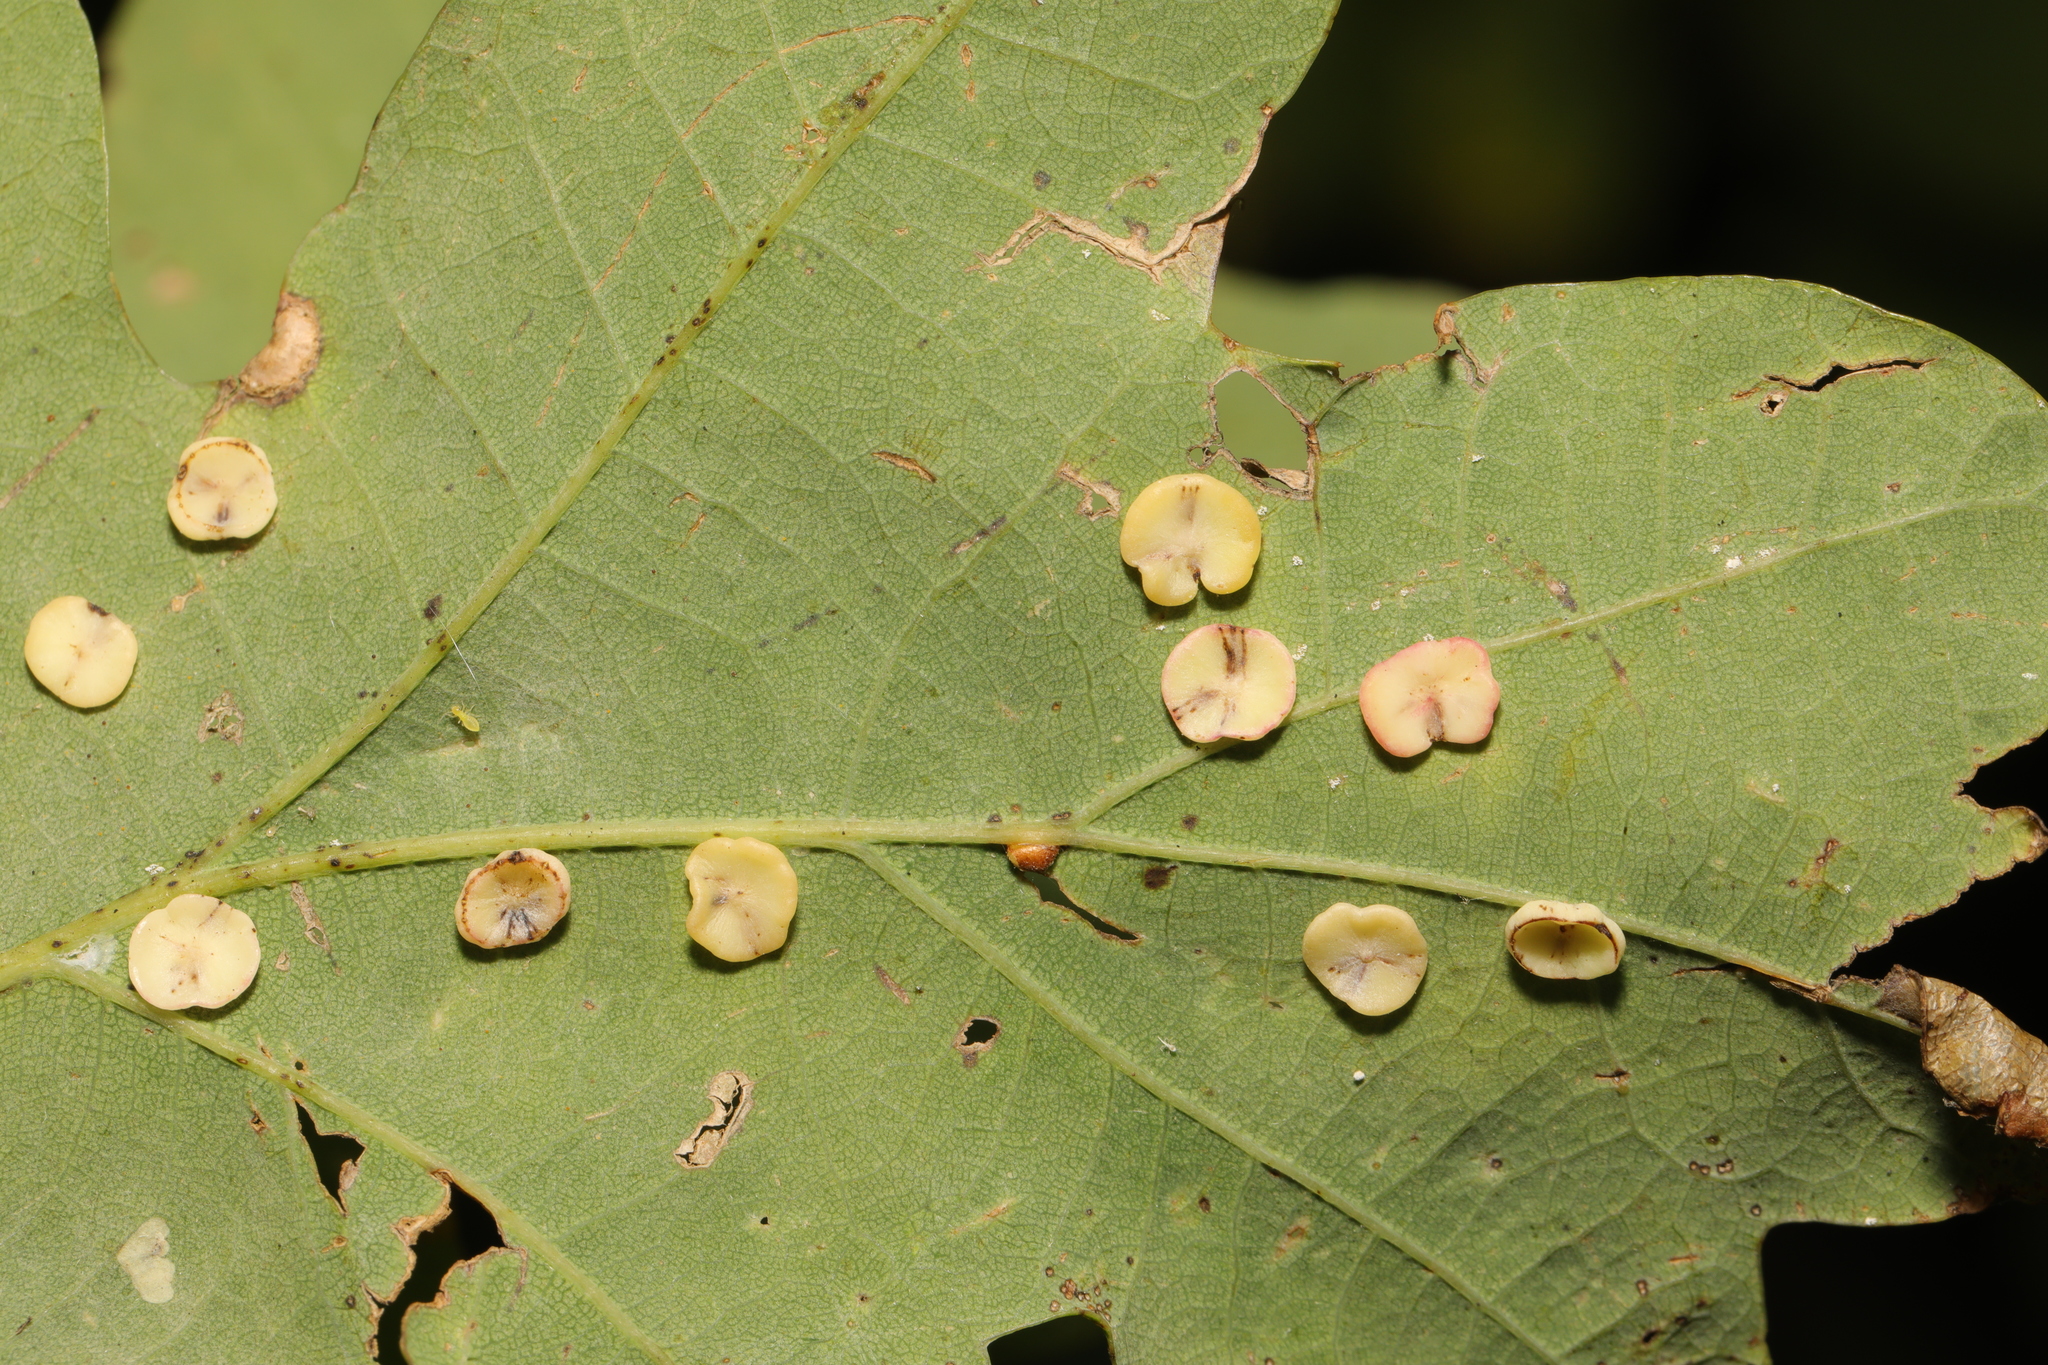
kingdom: Animalia
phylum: Arthropoda
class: Insecta
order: Hymenoptera
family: Cynipidae
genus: Neuroterus
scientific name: Neuroterus albipes
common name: Smooth spangle gall
